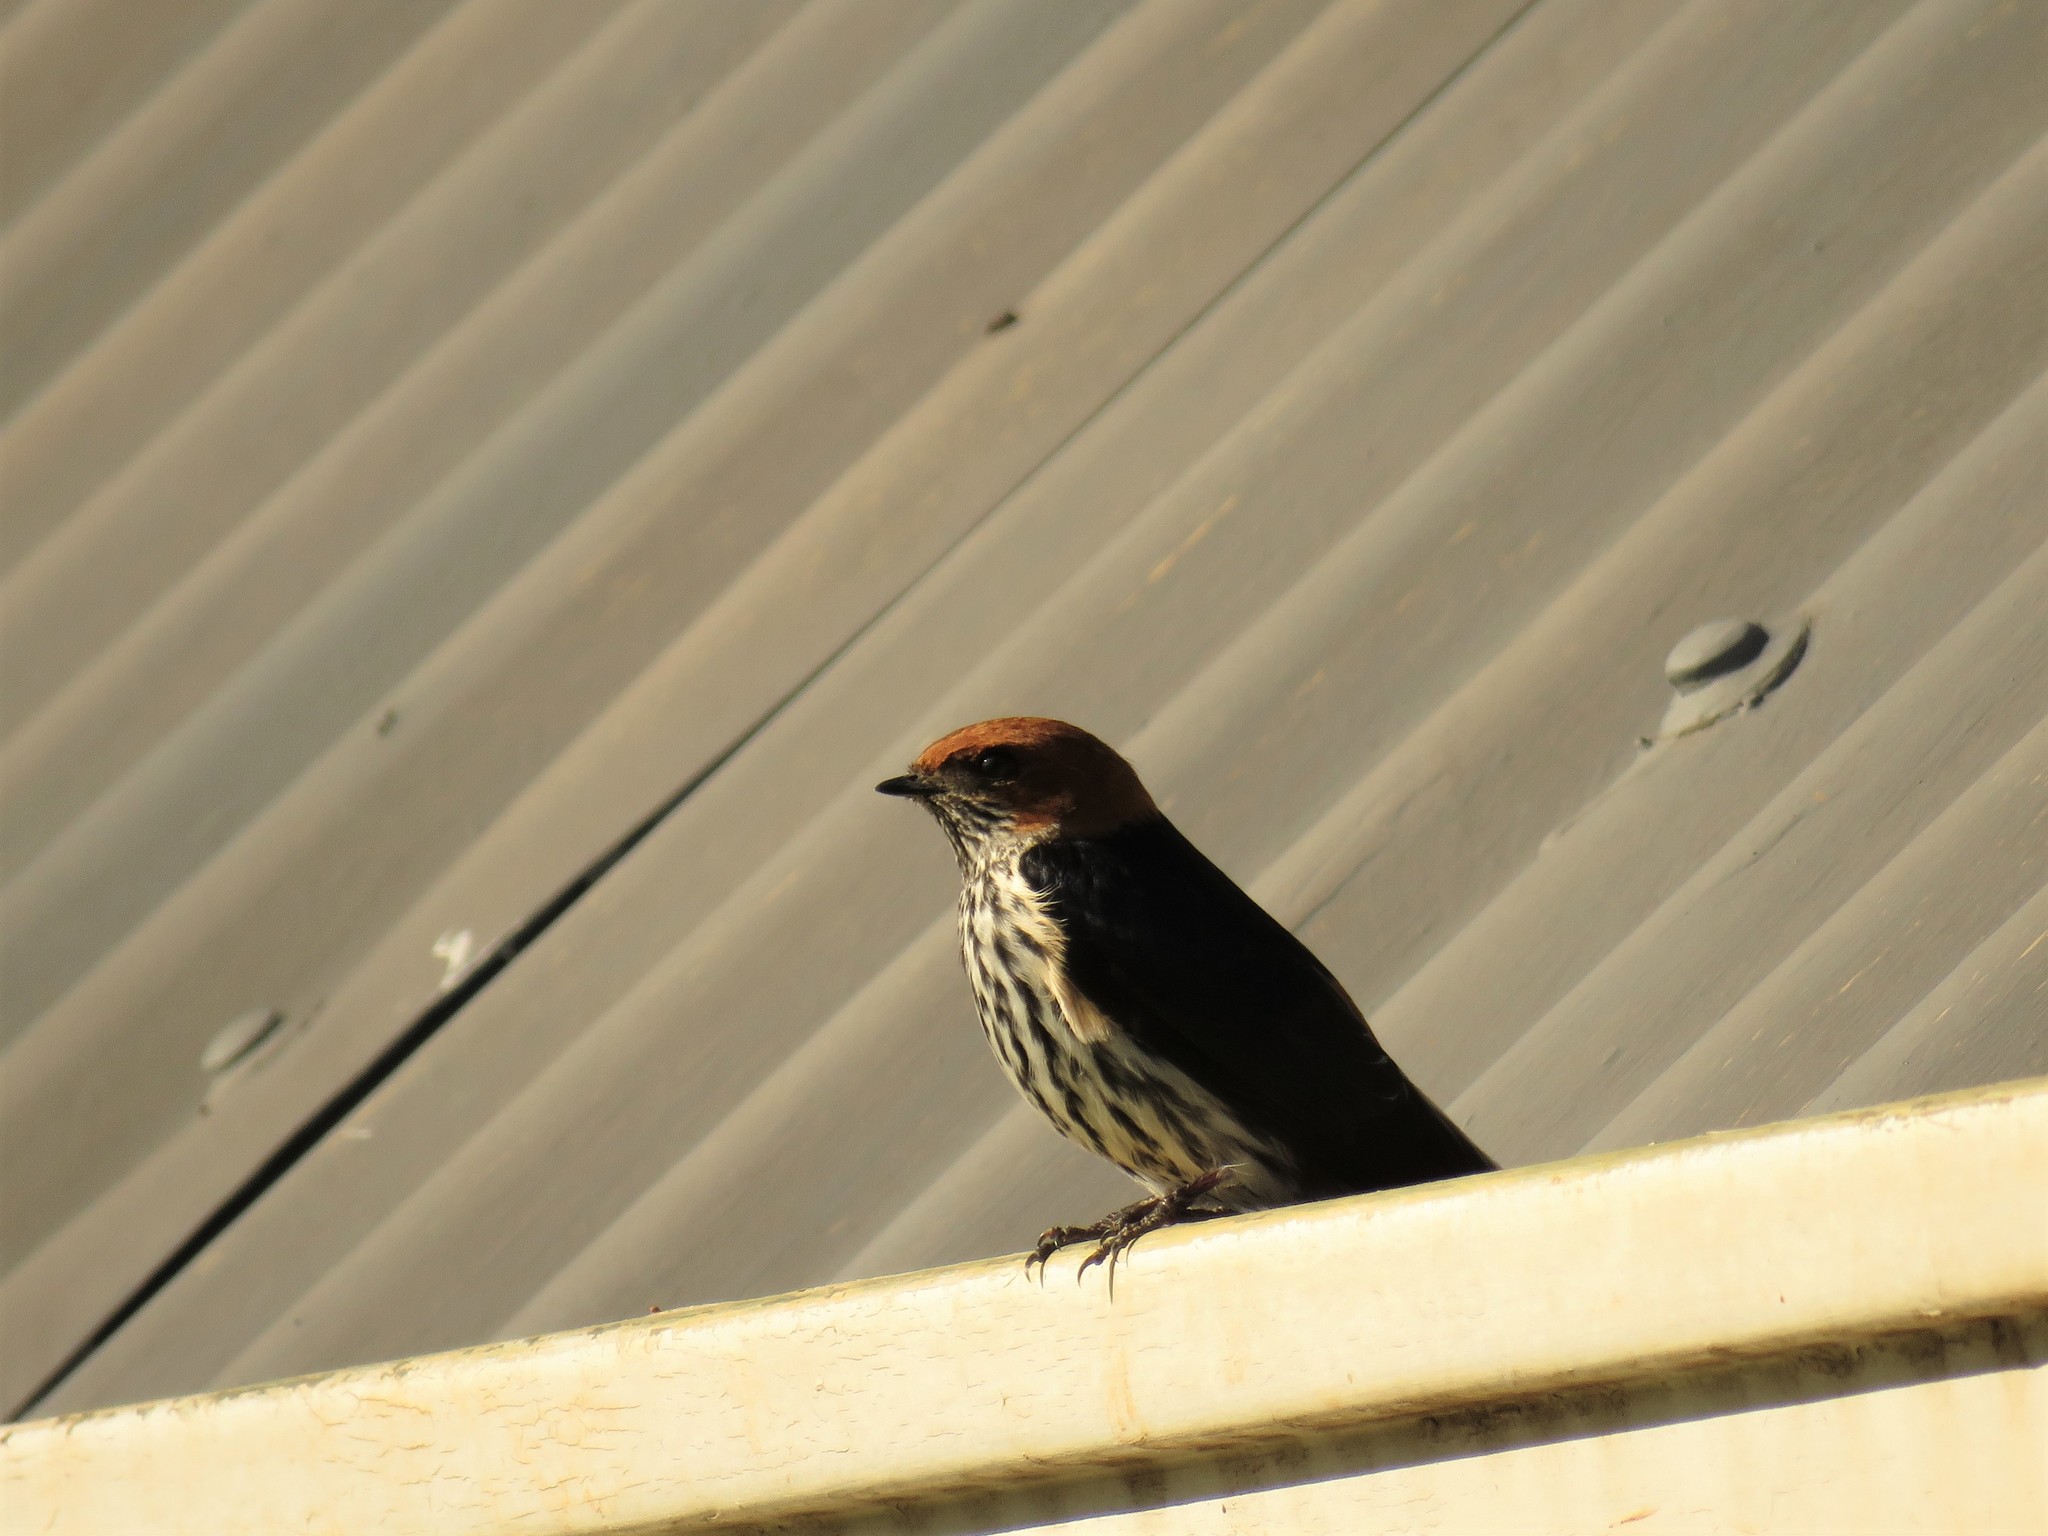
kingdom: Animalia
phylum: Chordata
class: Aves
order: Passeriformes
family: Hirundinidae
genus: Cecropis
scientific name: Cecropis abyssinica
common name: Lesser striped-swallow
